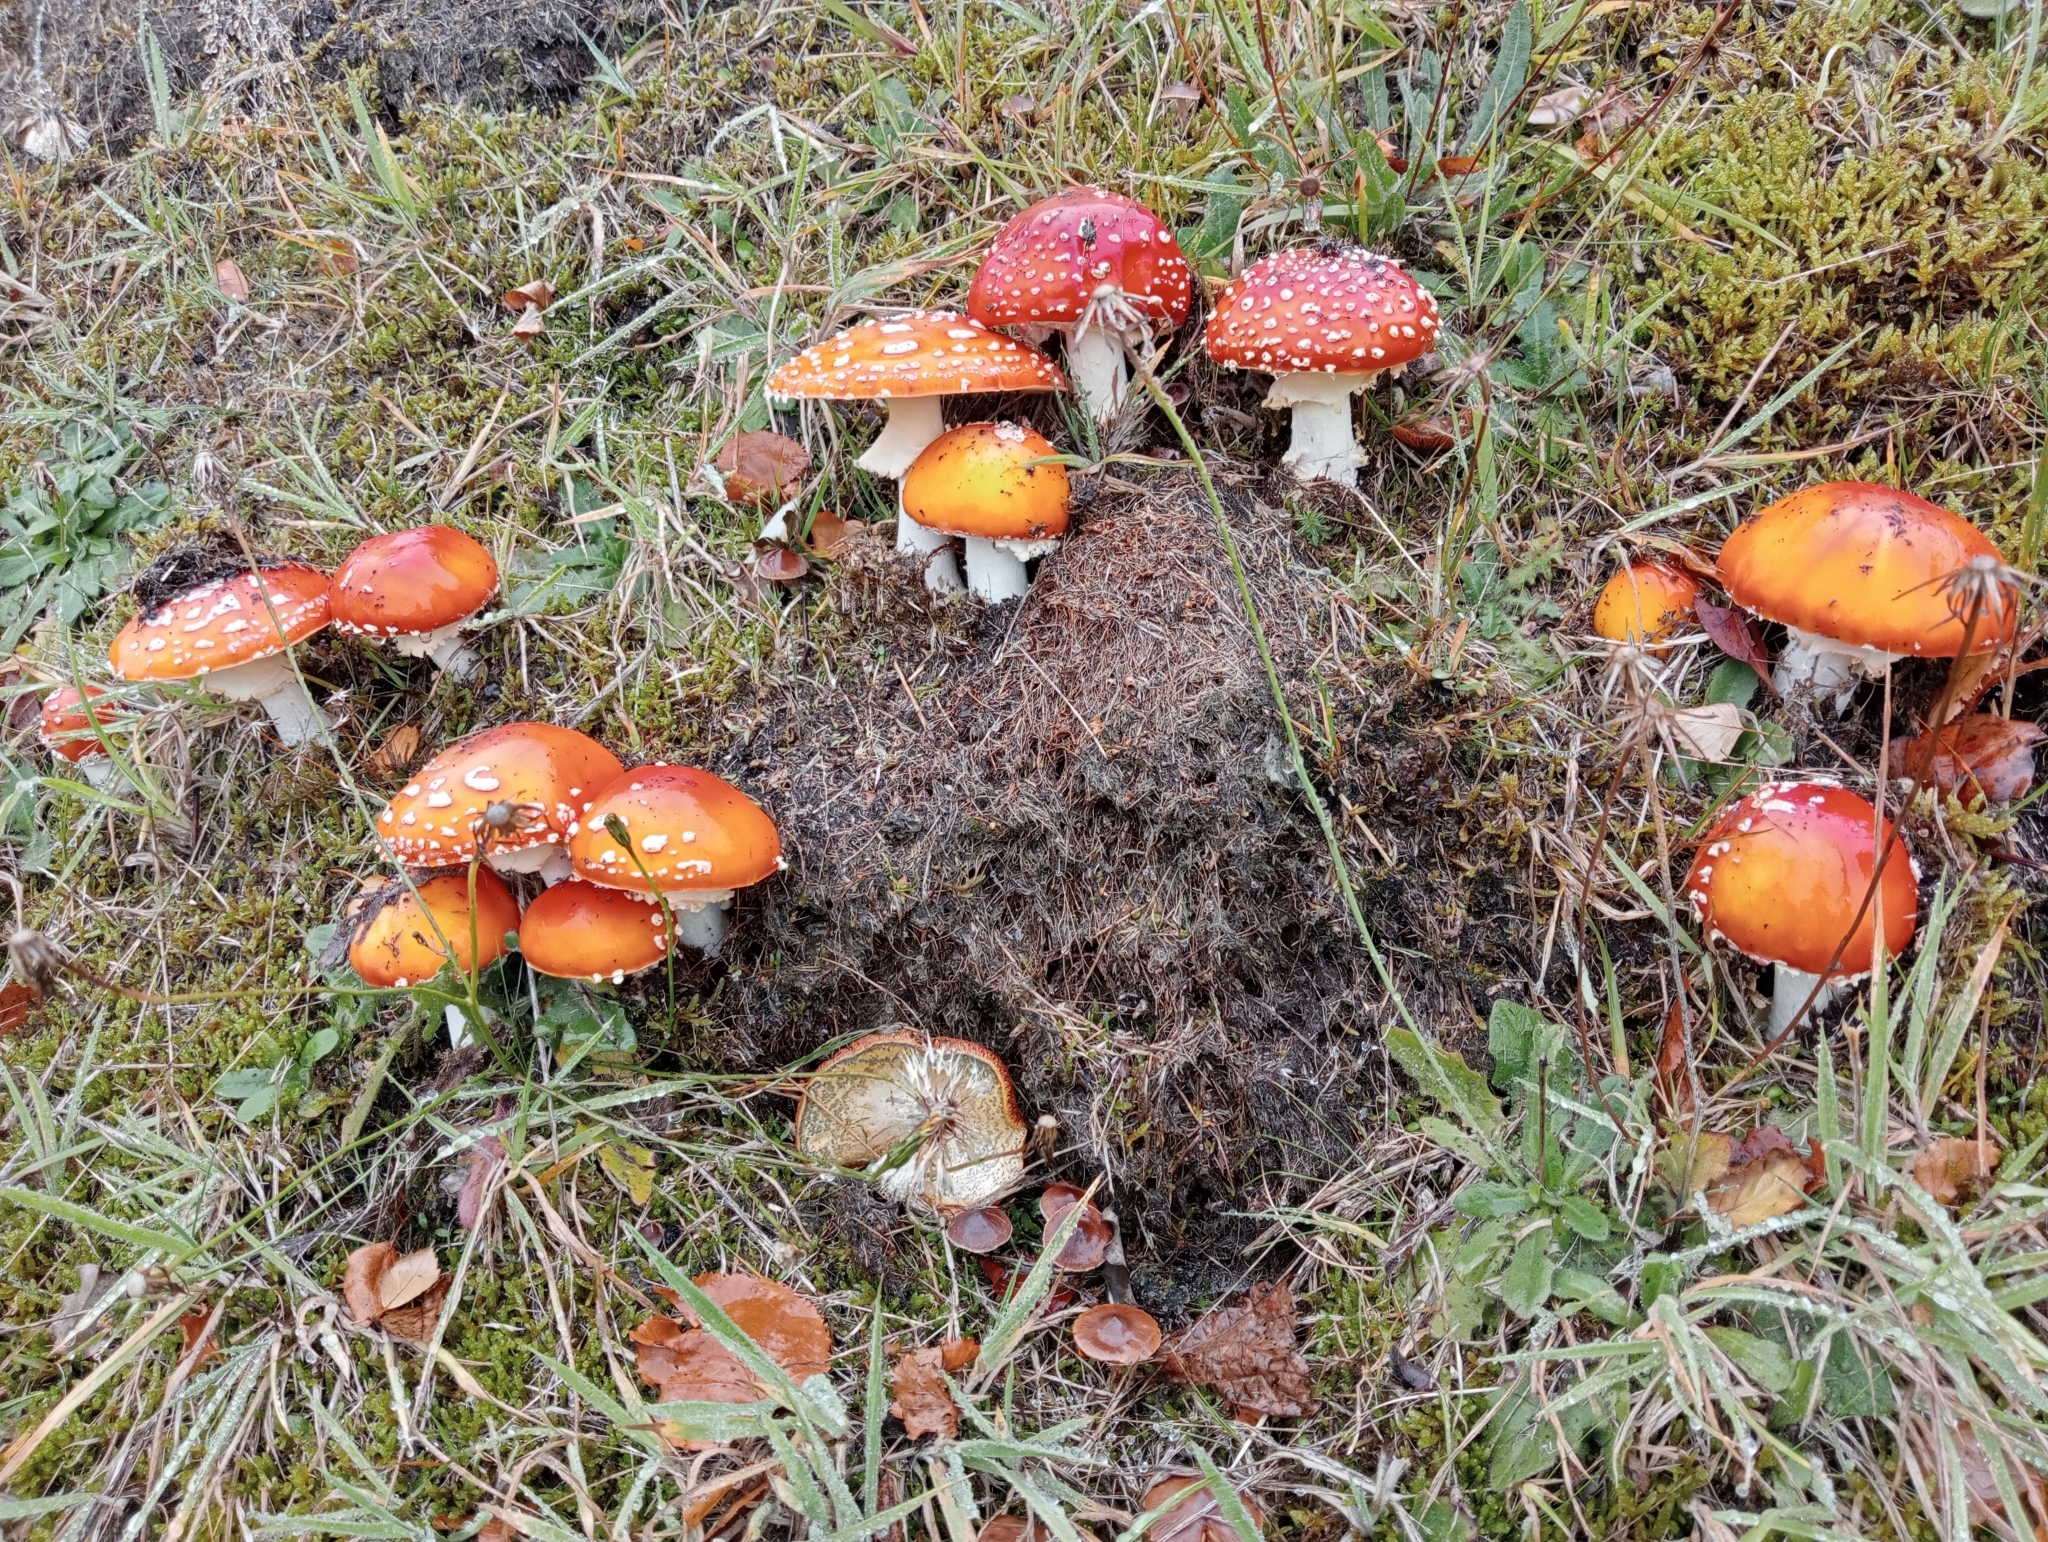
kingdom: Fungi
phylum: Basidiomycota
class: Agaricomycetes
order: Agaricales
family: Amanitaceae
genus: Amanita
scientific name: Amanita muscaria
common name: Fly agaric
